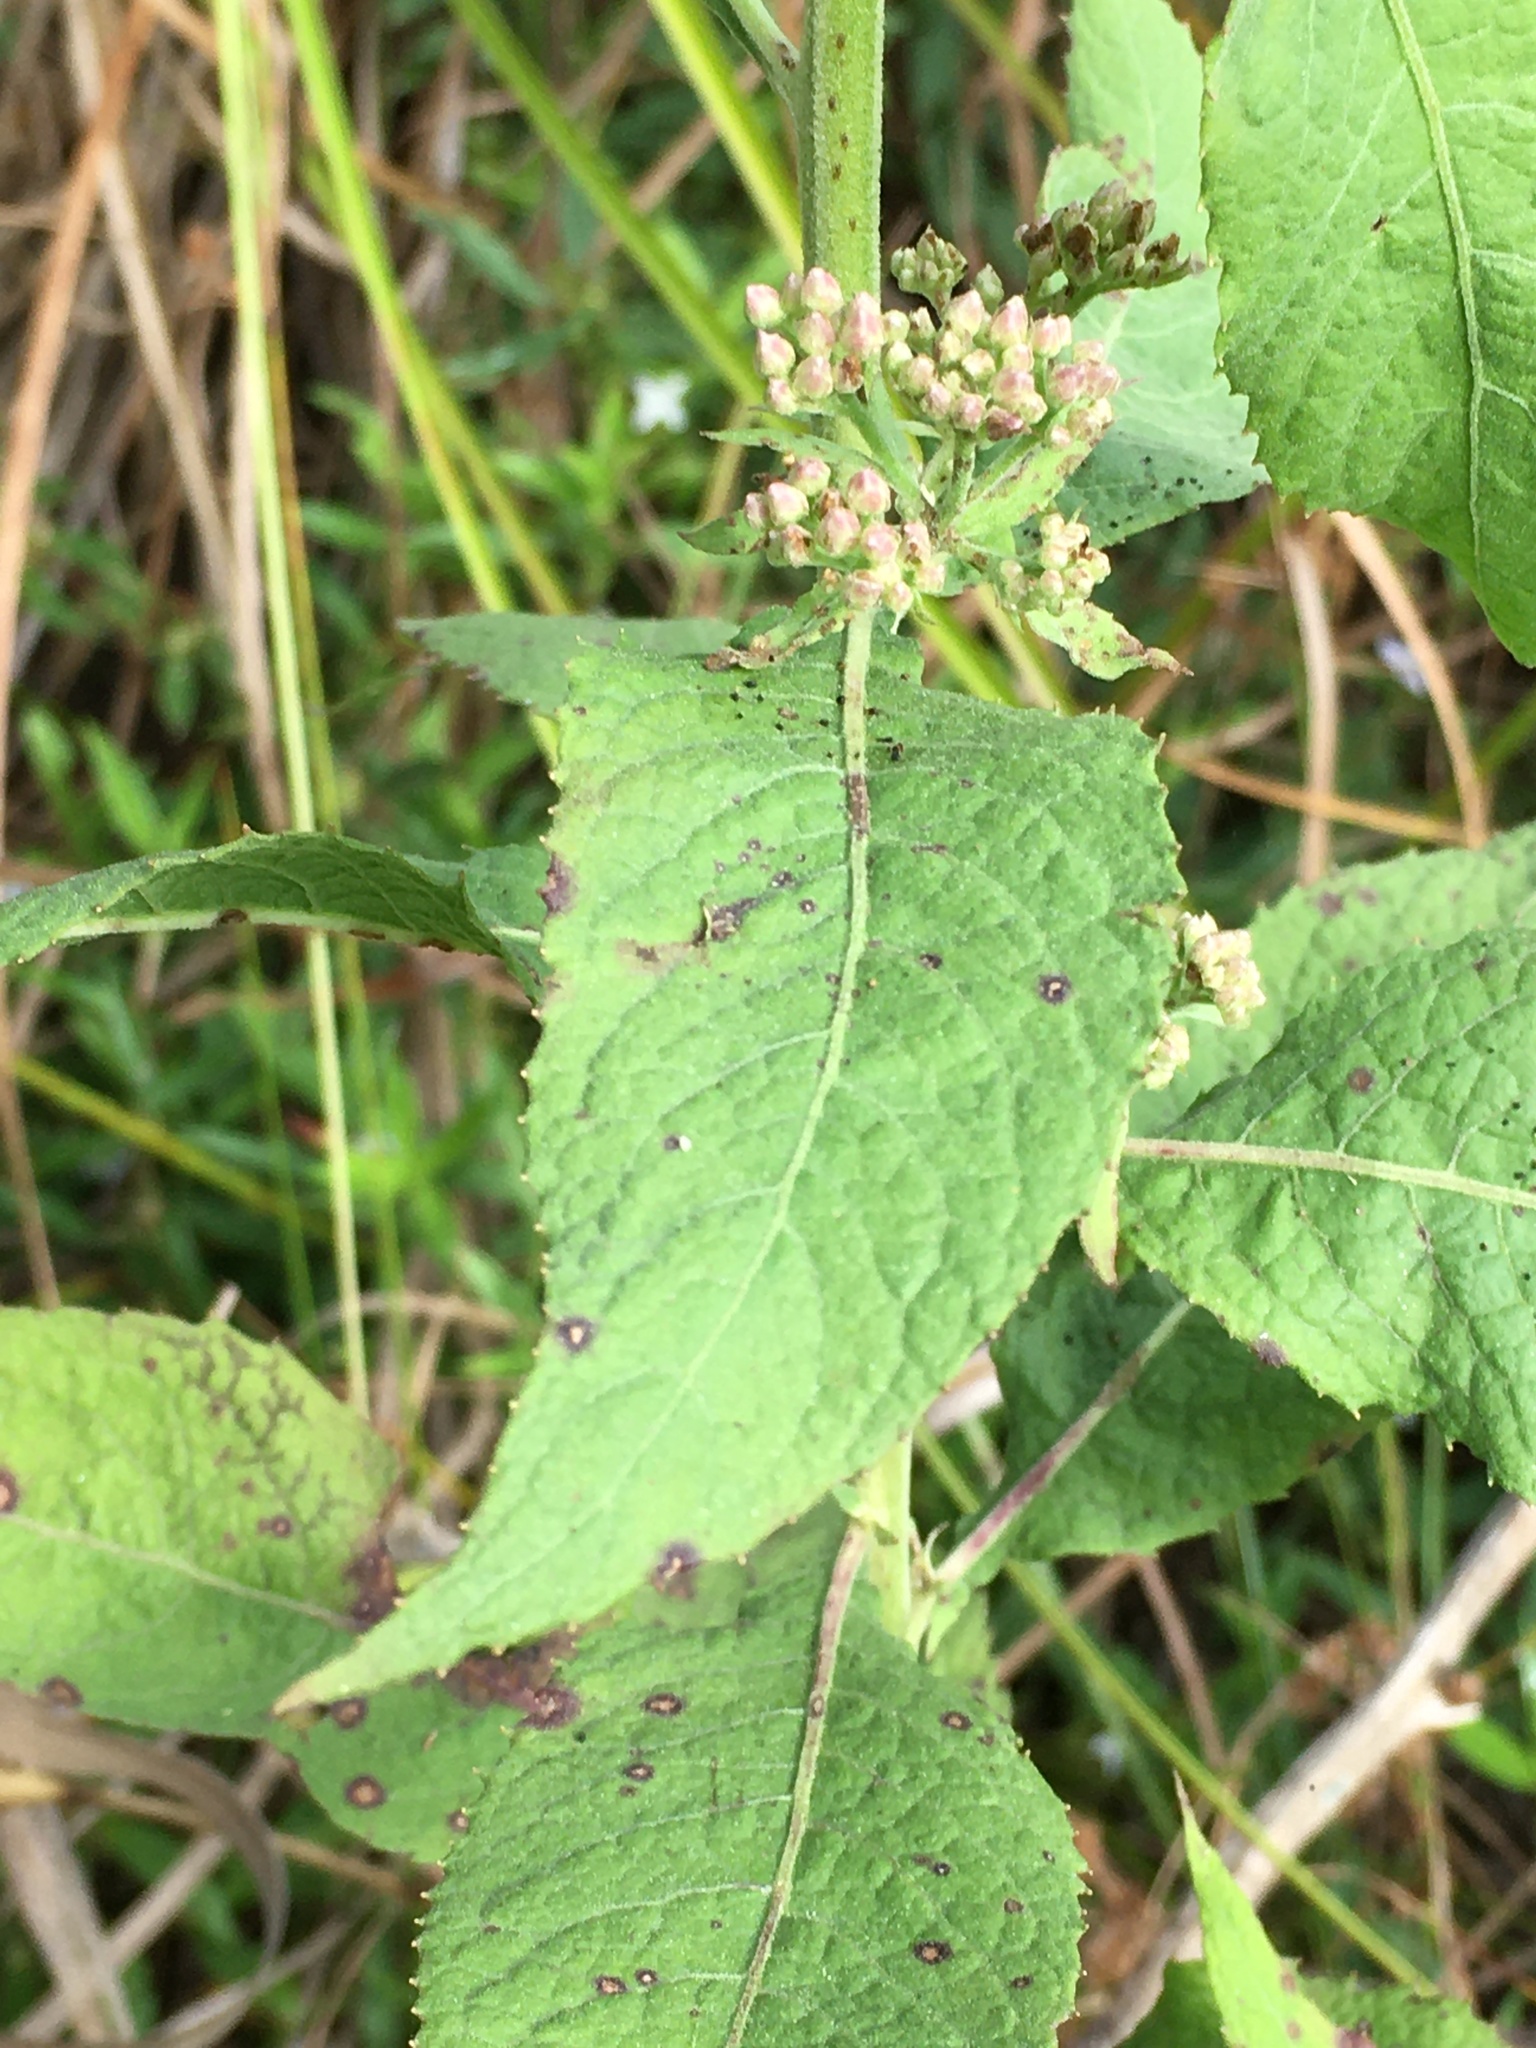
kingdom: Plantae
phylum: Tracheophyta
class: Magnoliopsida
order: Asterales
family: Asteraceae
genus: Pluchea
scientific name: Pluchea camphorata
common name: Camphor pluchea
